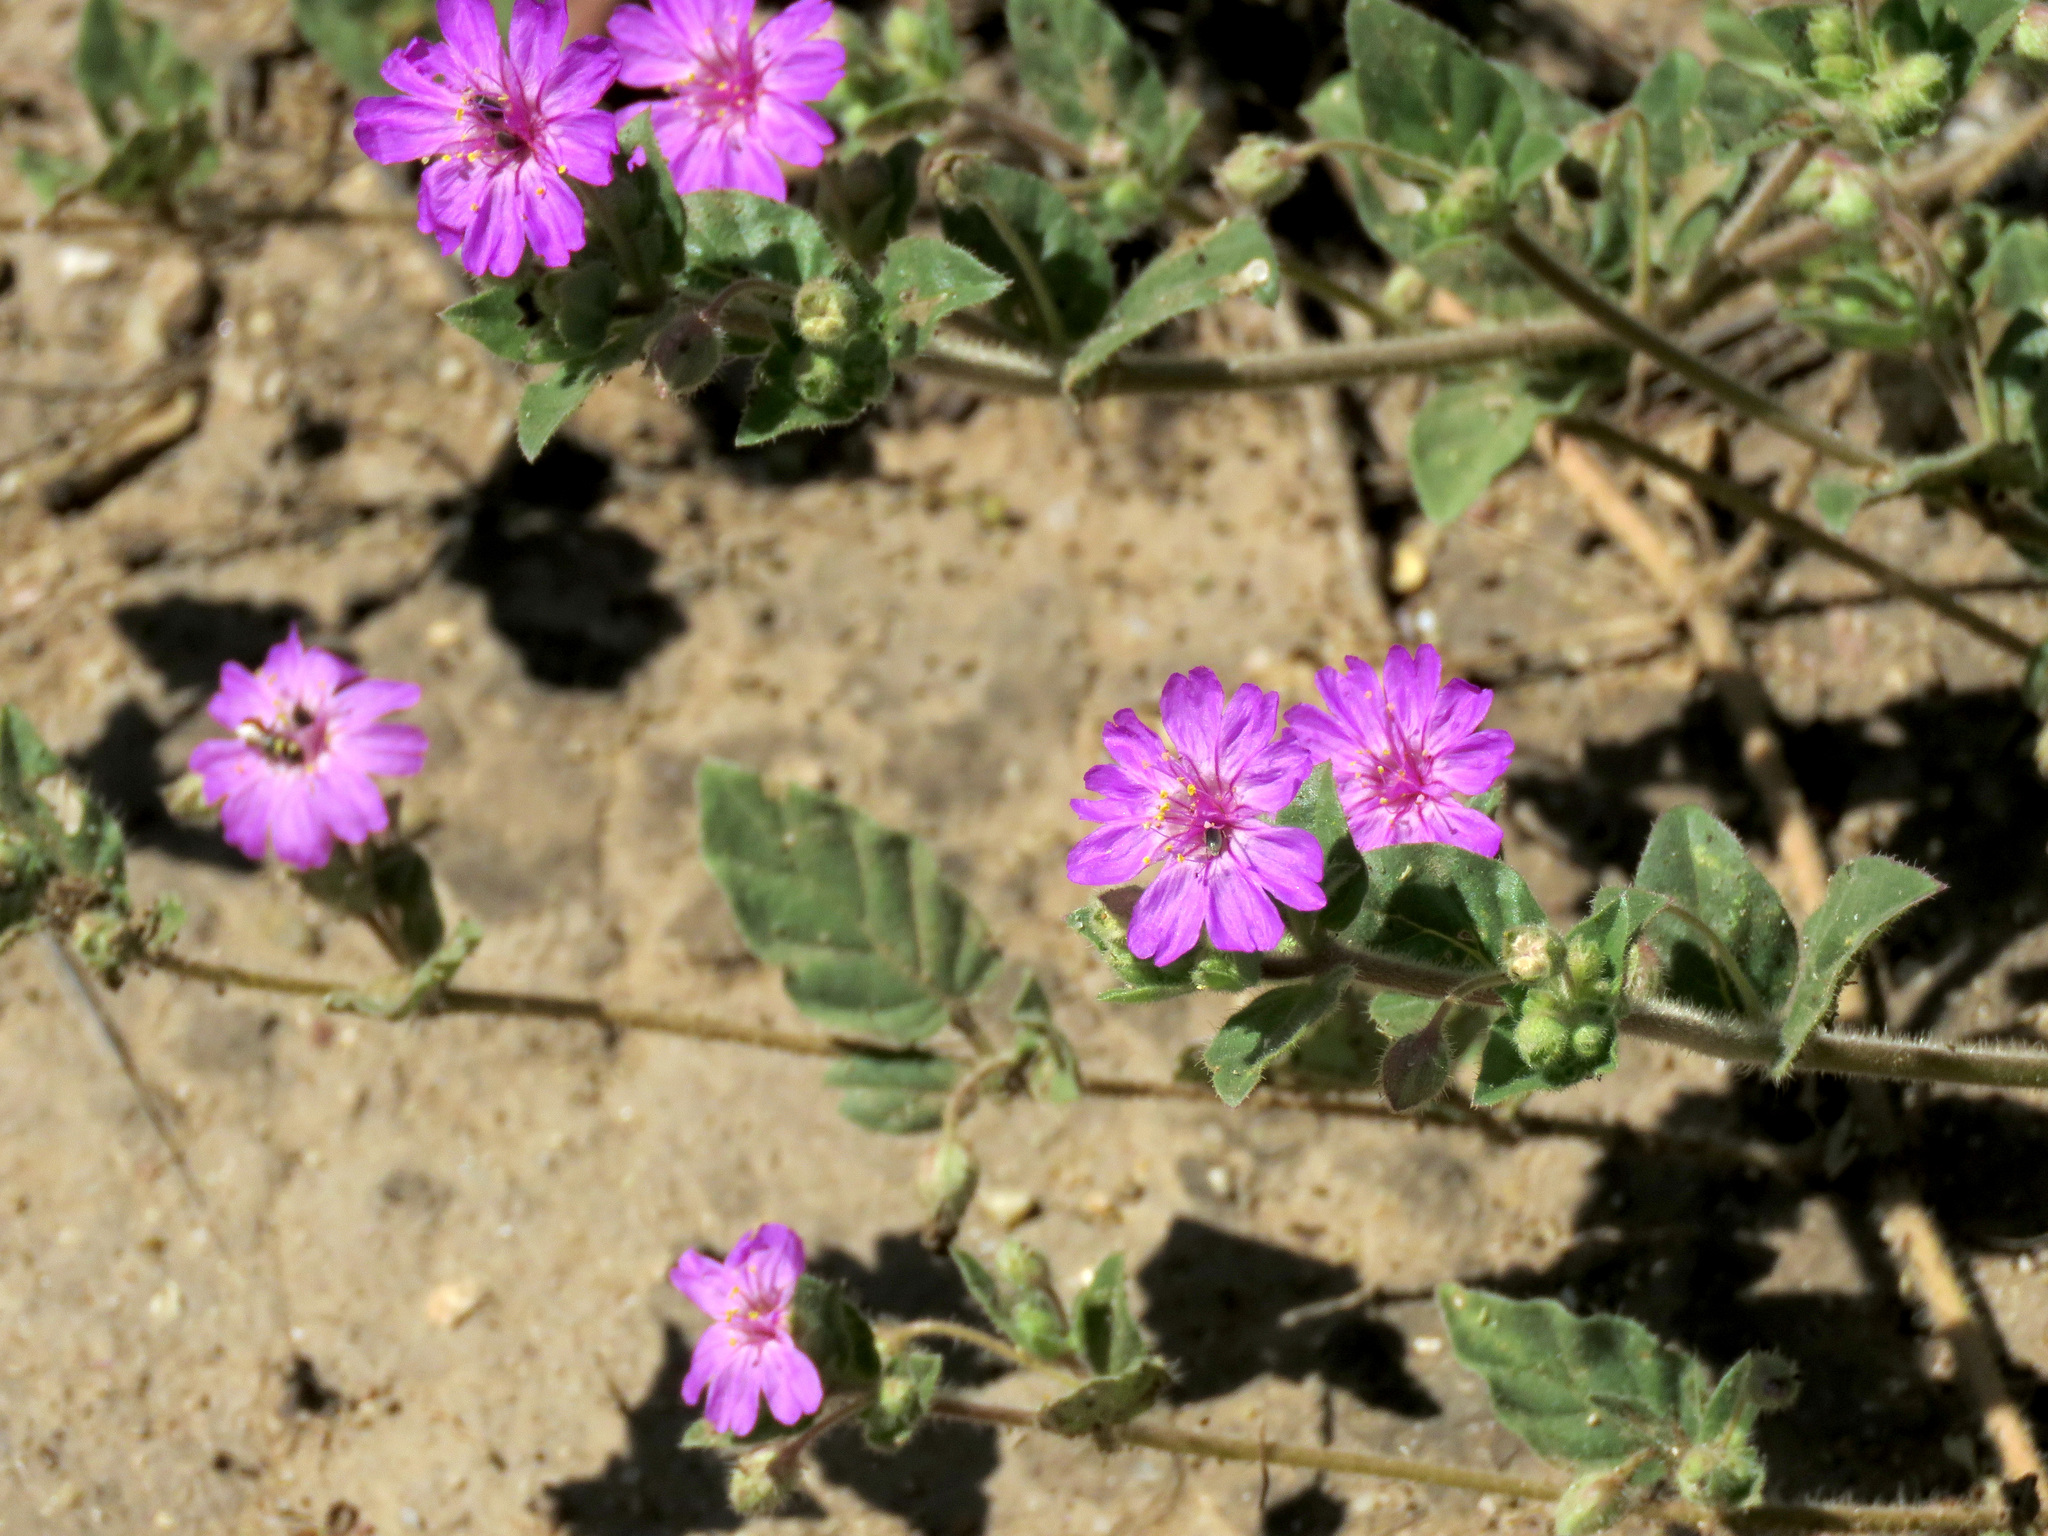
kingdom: Plantae
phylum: Tracheophyta
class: Magnoliopsida
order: Caryophyllales
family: Nyctaginaceae
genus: Allionia
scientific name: Allionia incarnata
